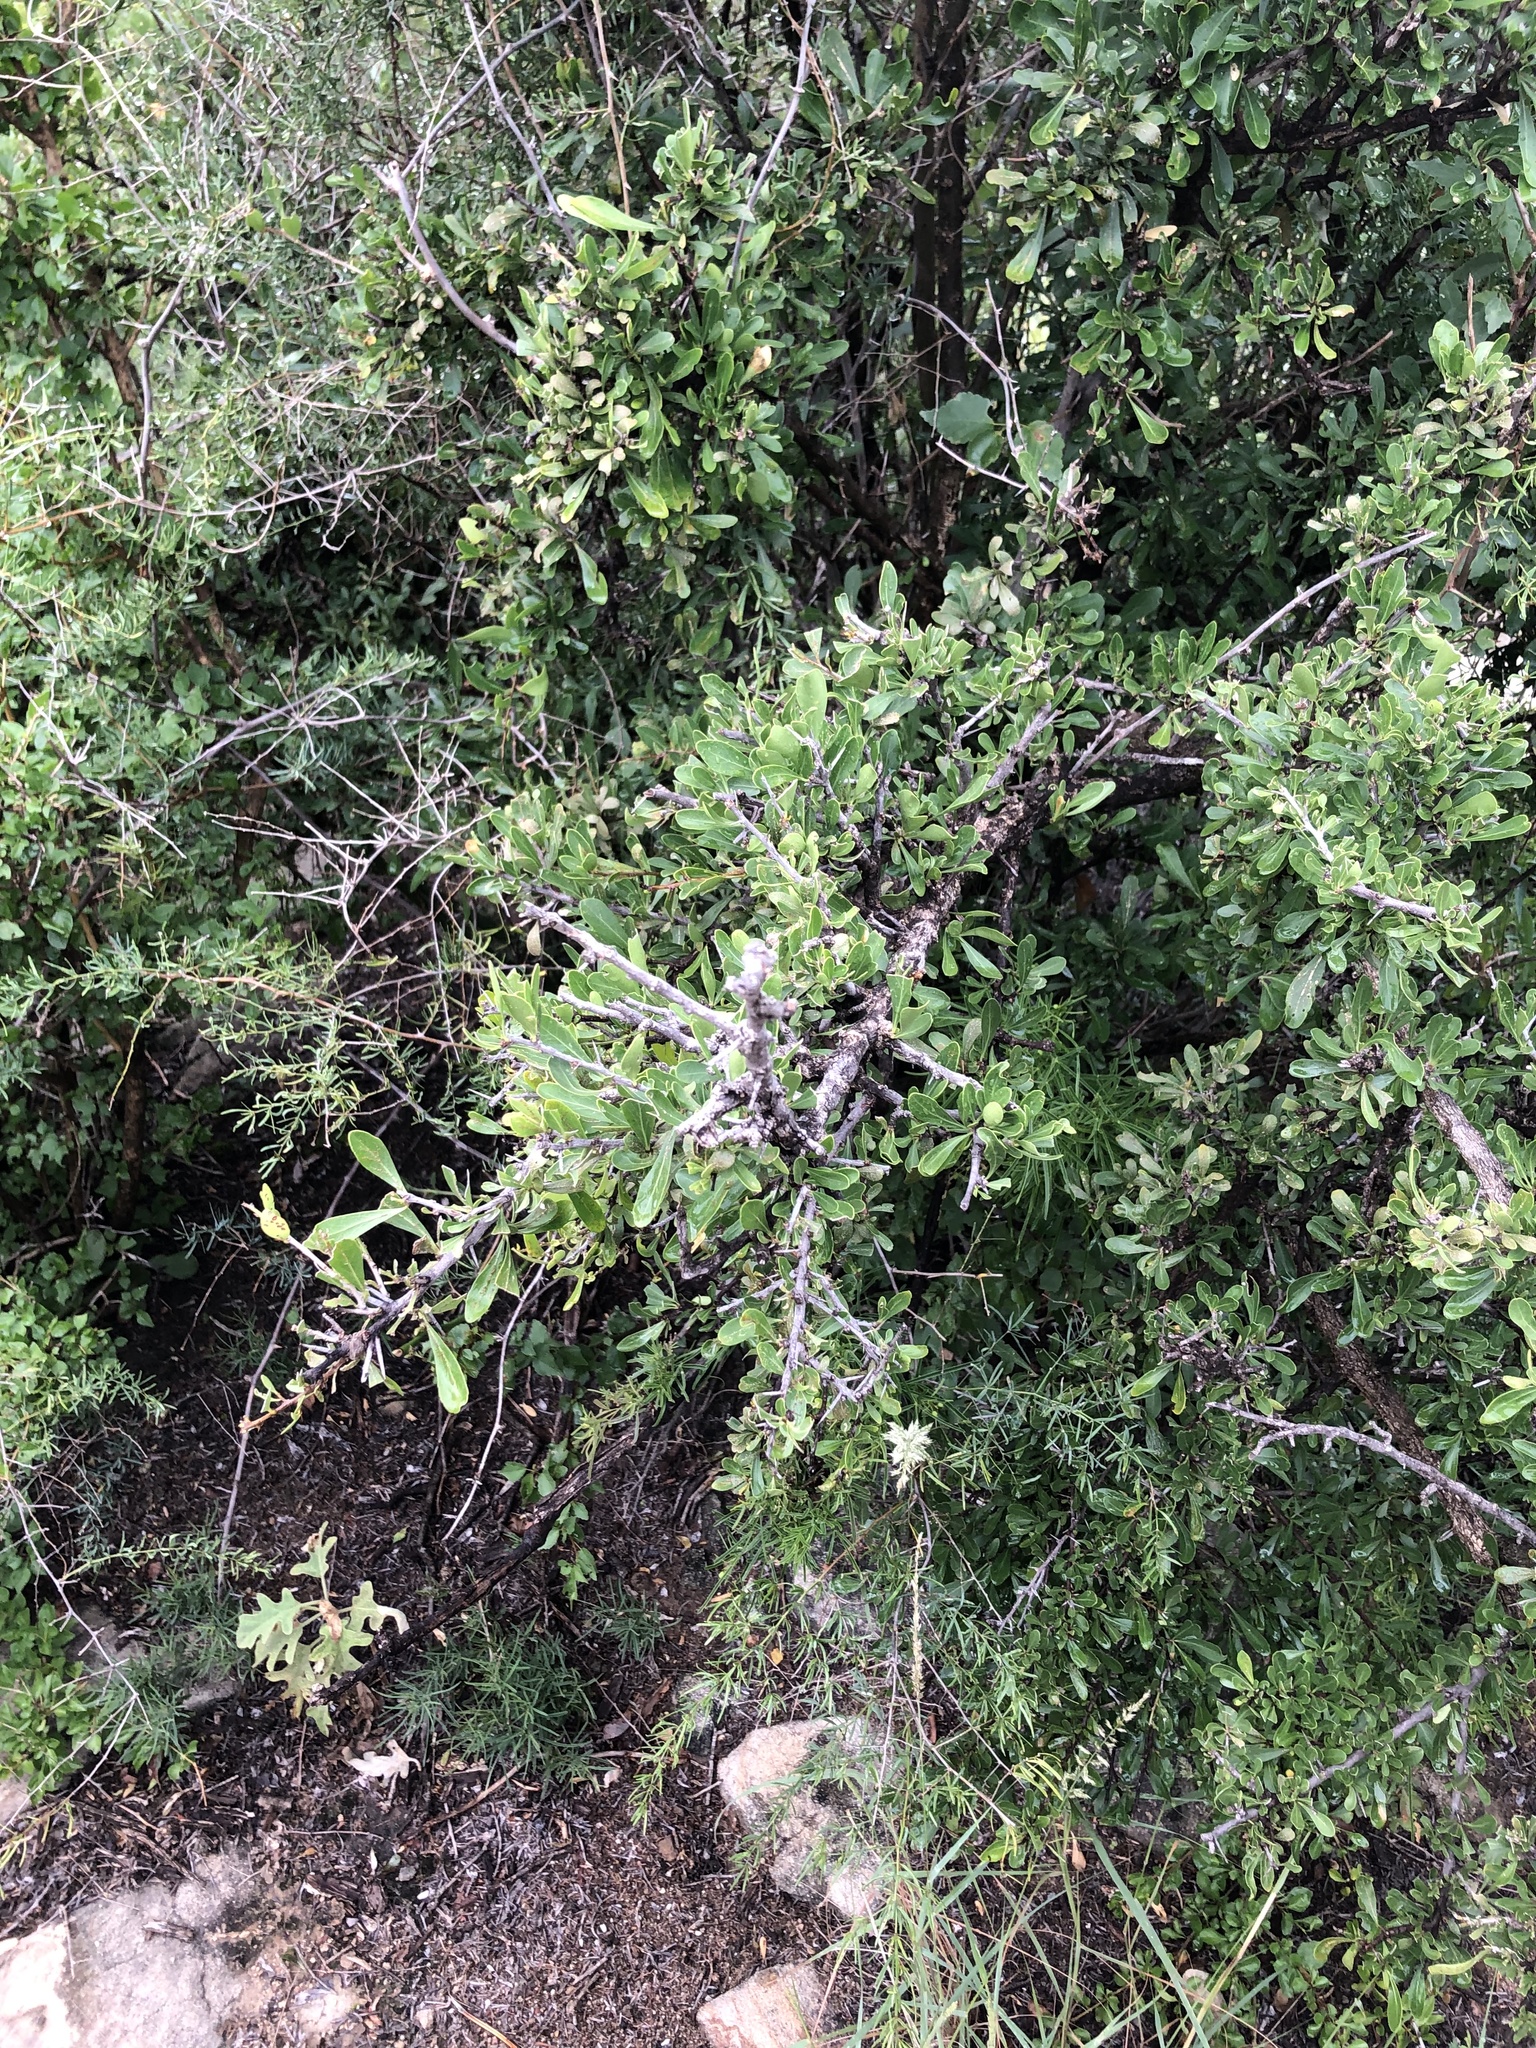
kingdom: Plantae
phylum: Tracheophyta
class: Magnoliopsida
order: Celastrales
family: Celastraceae
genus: Gymnosporia
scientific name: Gymnosporia buxifolia
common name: Common spike-thorn
